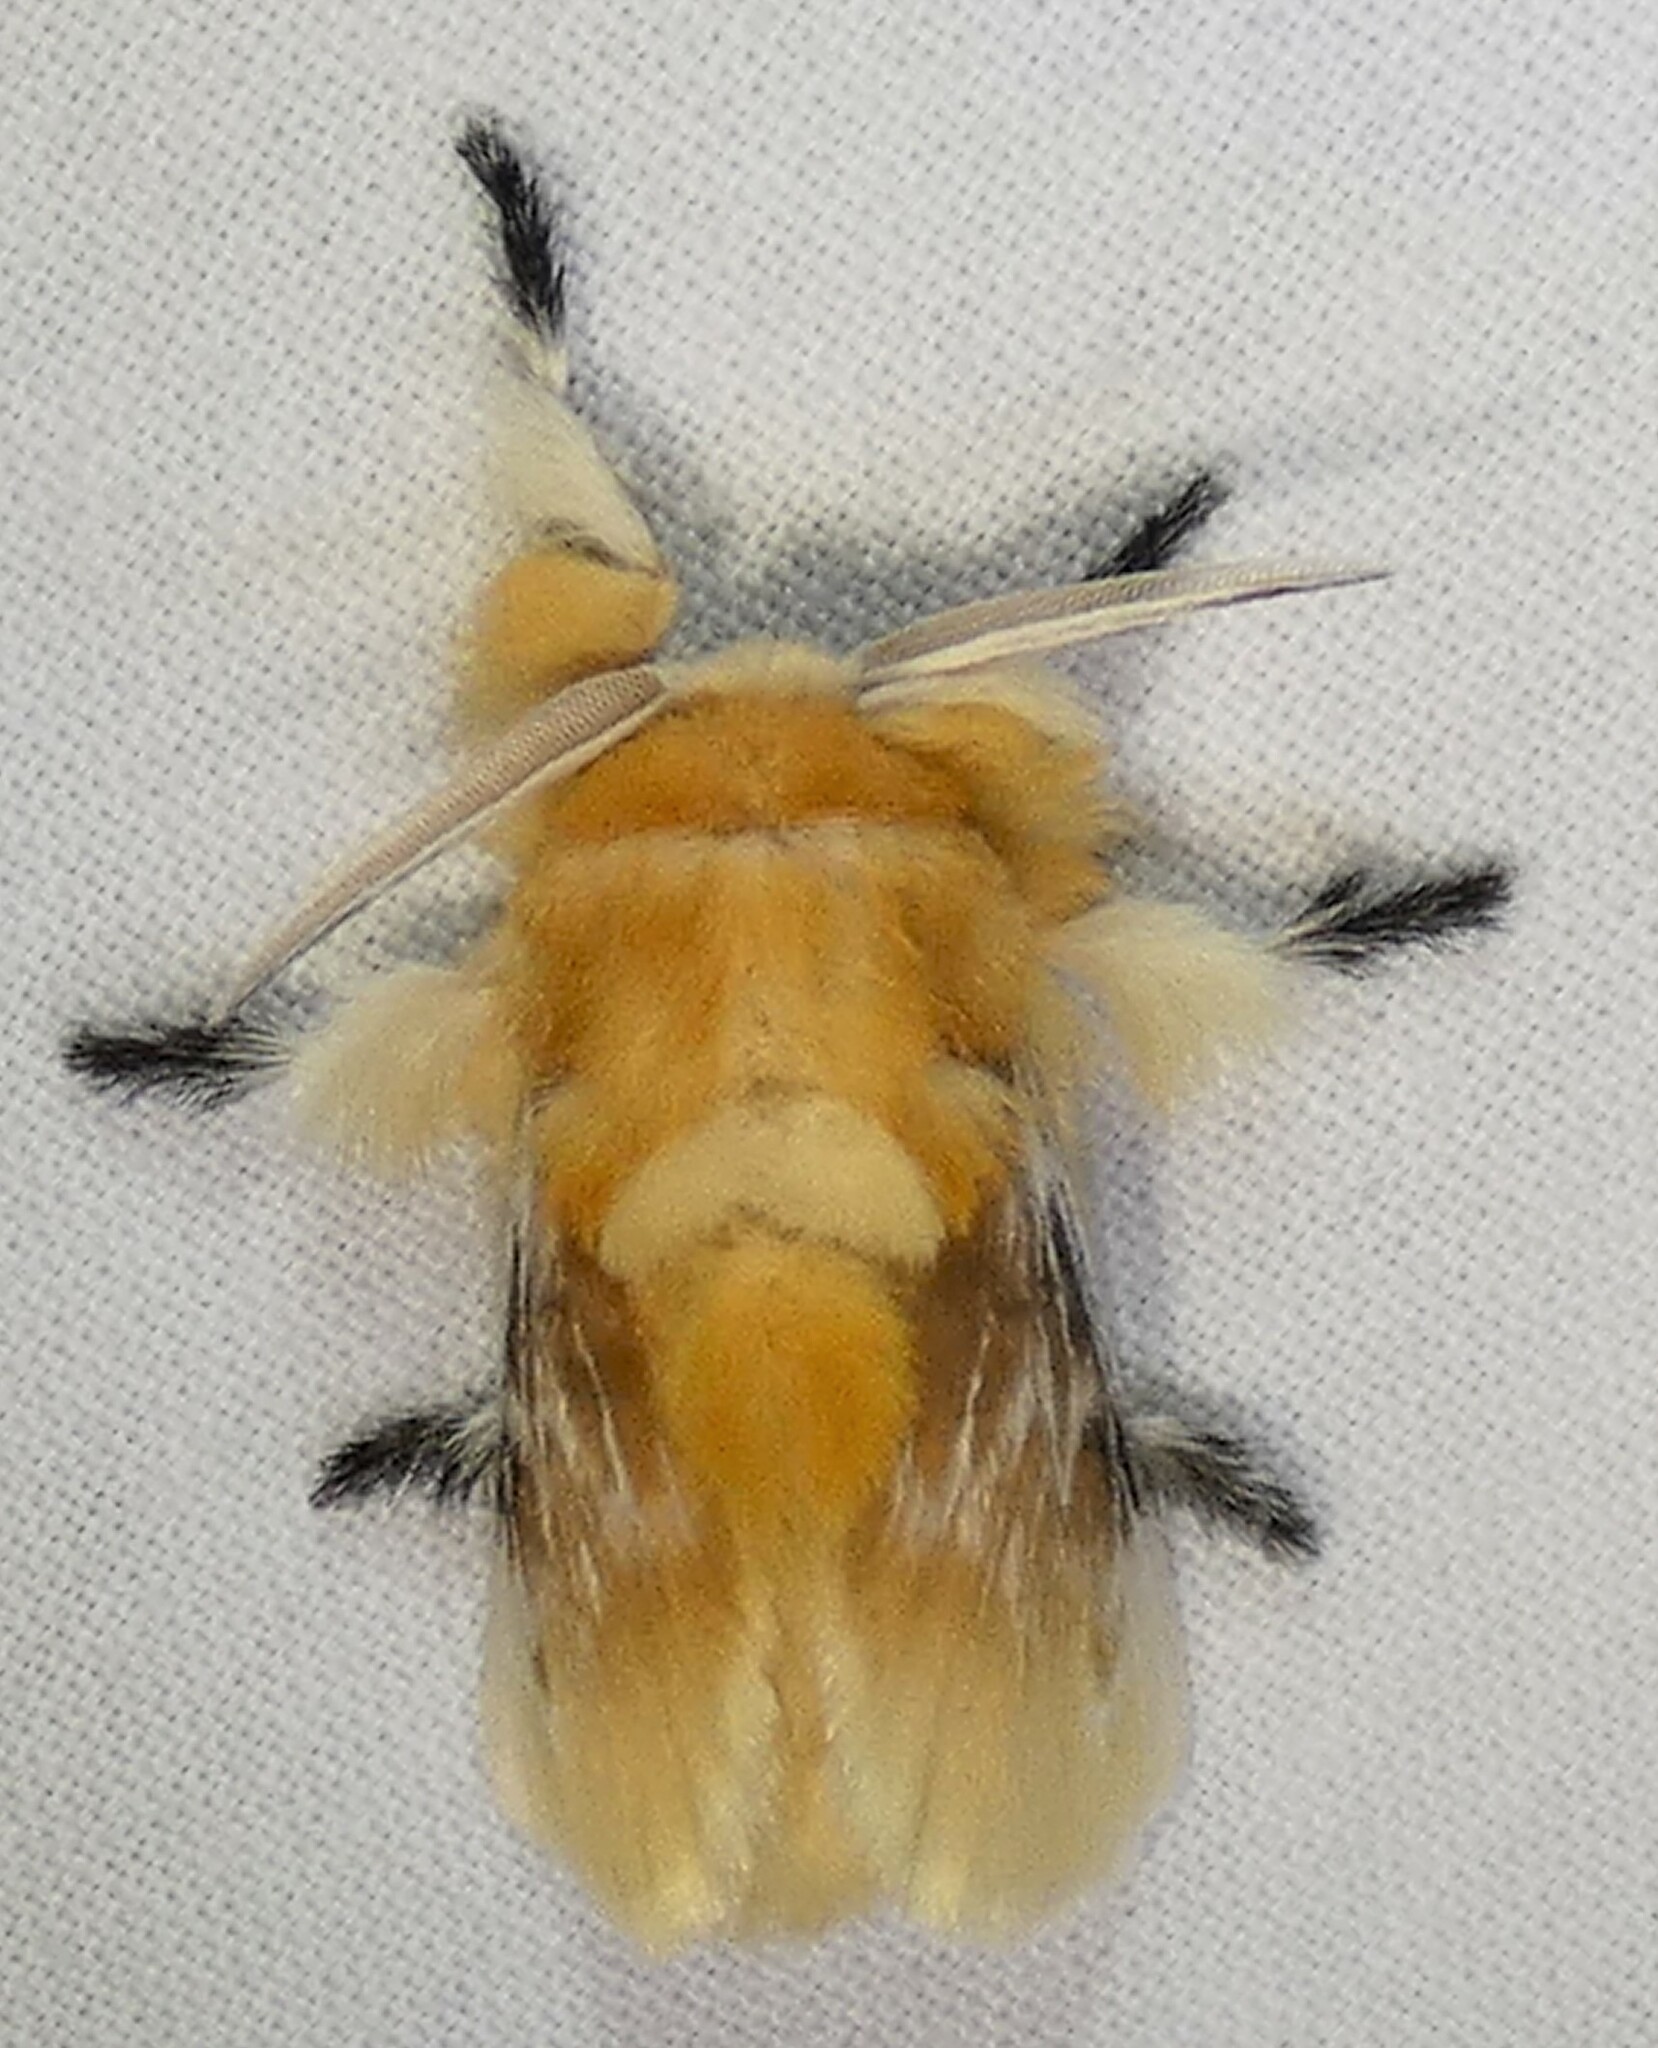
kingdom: Animalia
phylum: Arthropoda
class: Insecta
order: Lepidoptera
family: Megalopygidae
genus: Megalopyge
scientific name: Megalopyge opercularis
